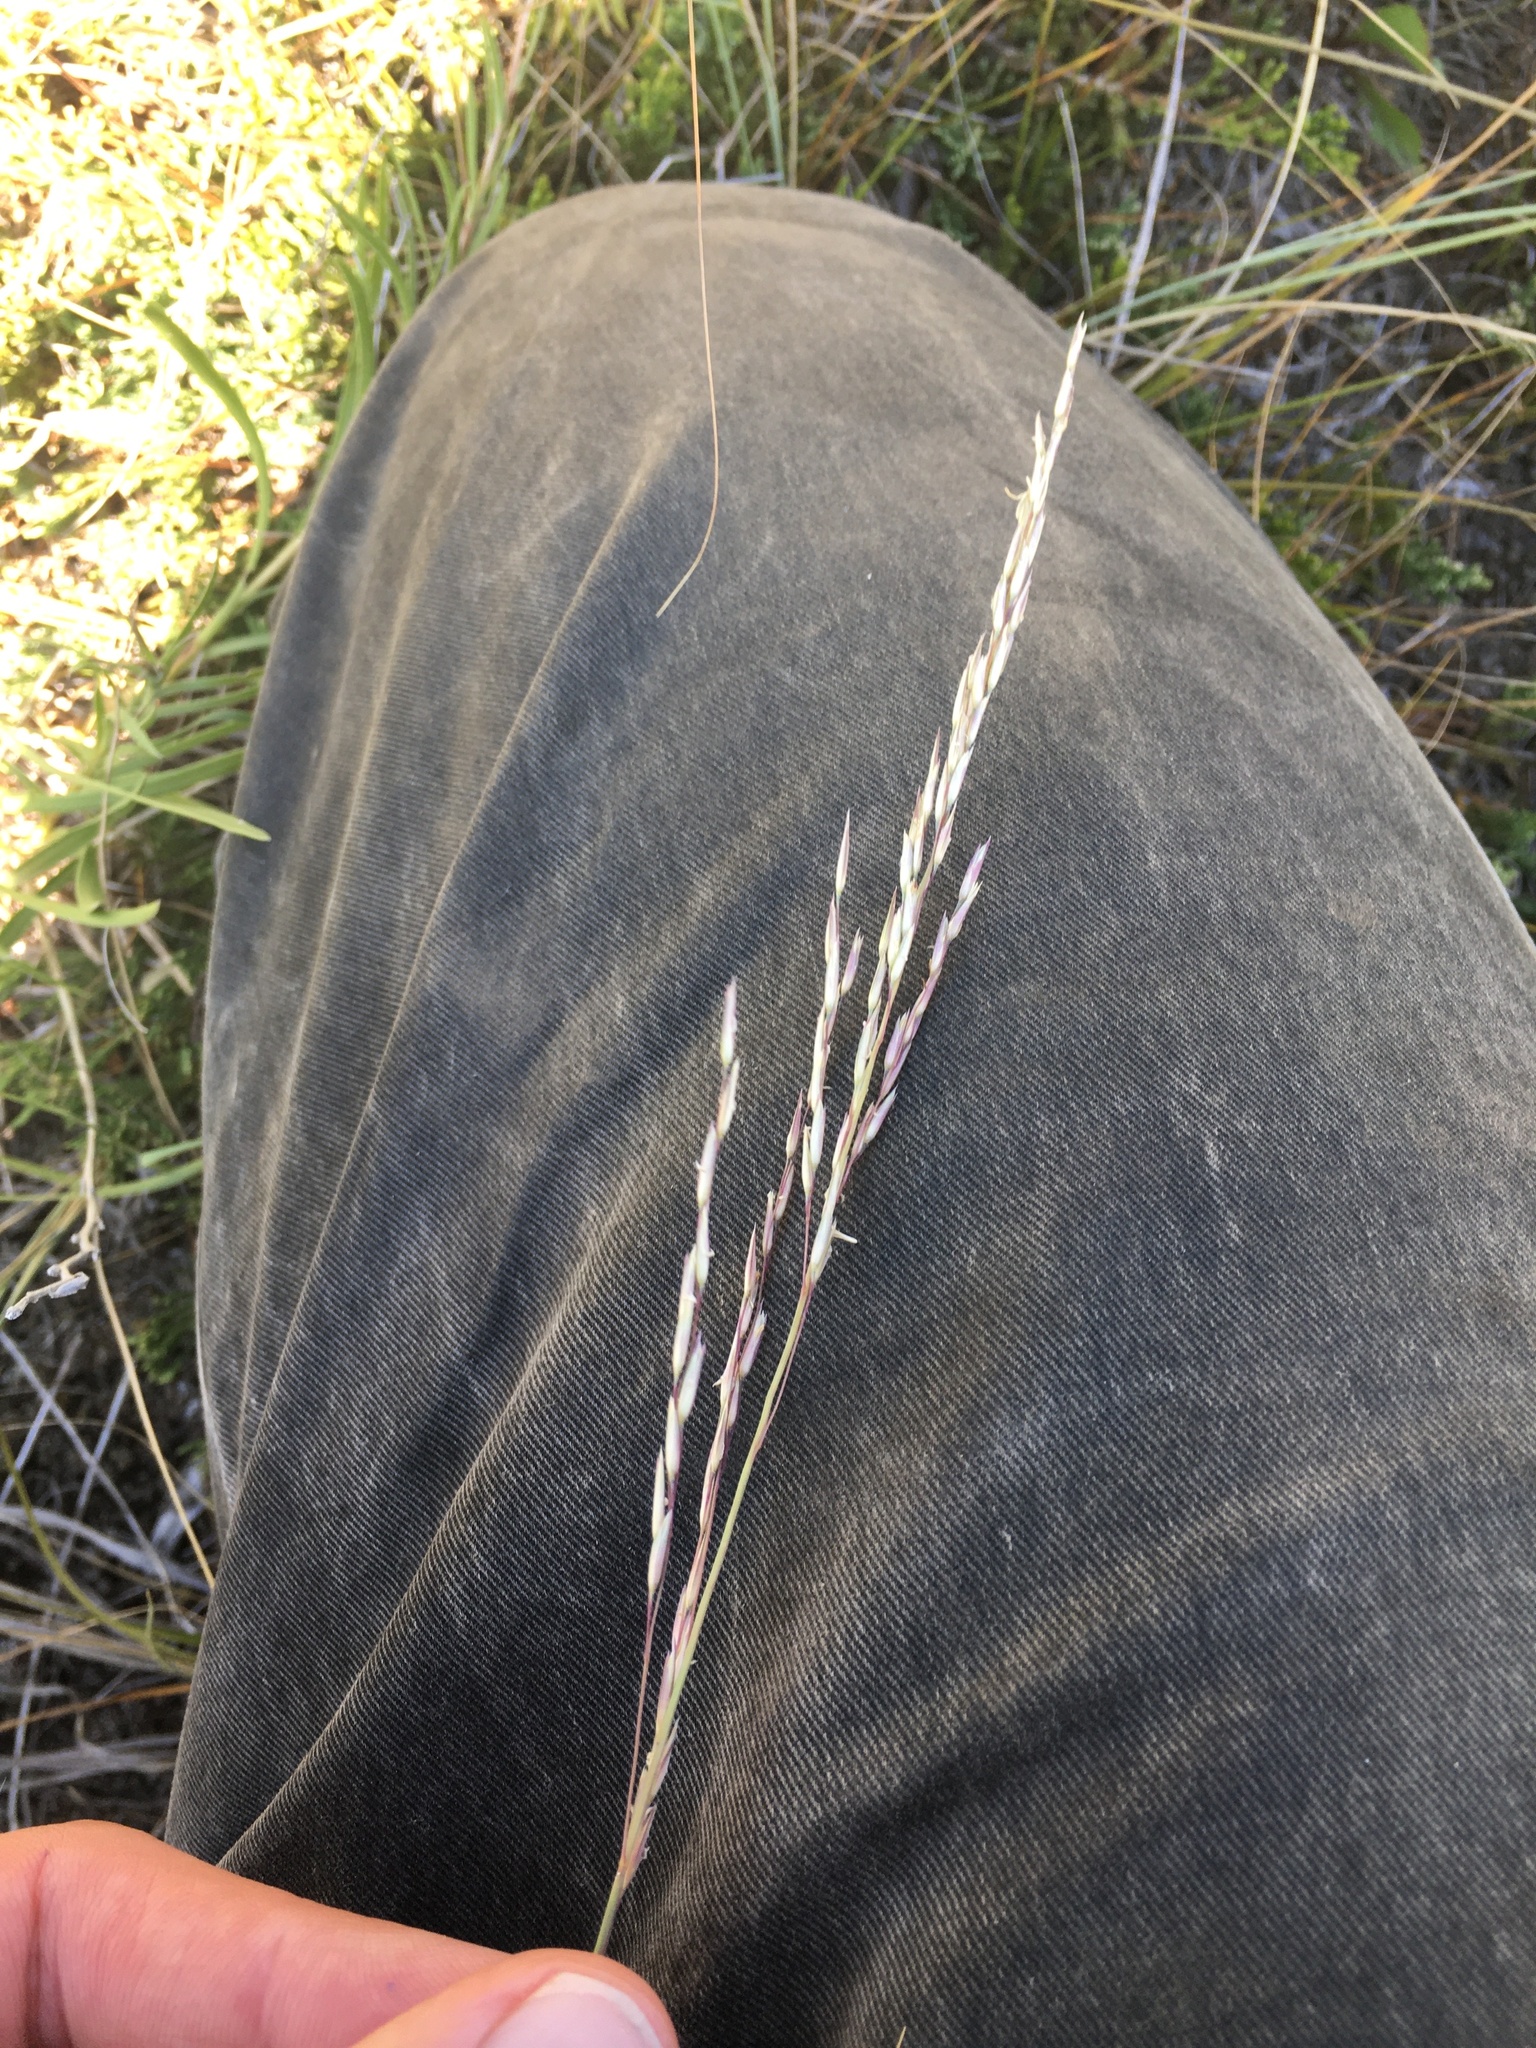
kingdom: Plantae
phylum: Tracheophyta
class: Liliopsida
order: Poales
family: Poaceae
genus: Sporobolus
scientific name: Sporobolus rigidus
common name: Prairie sandreed
